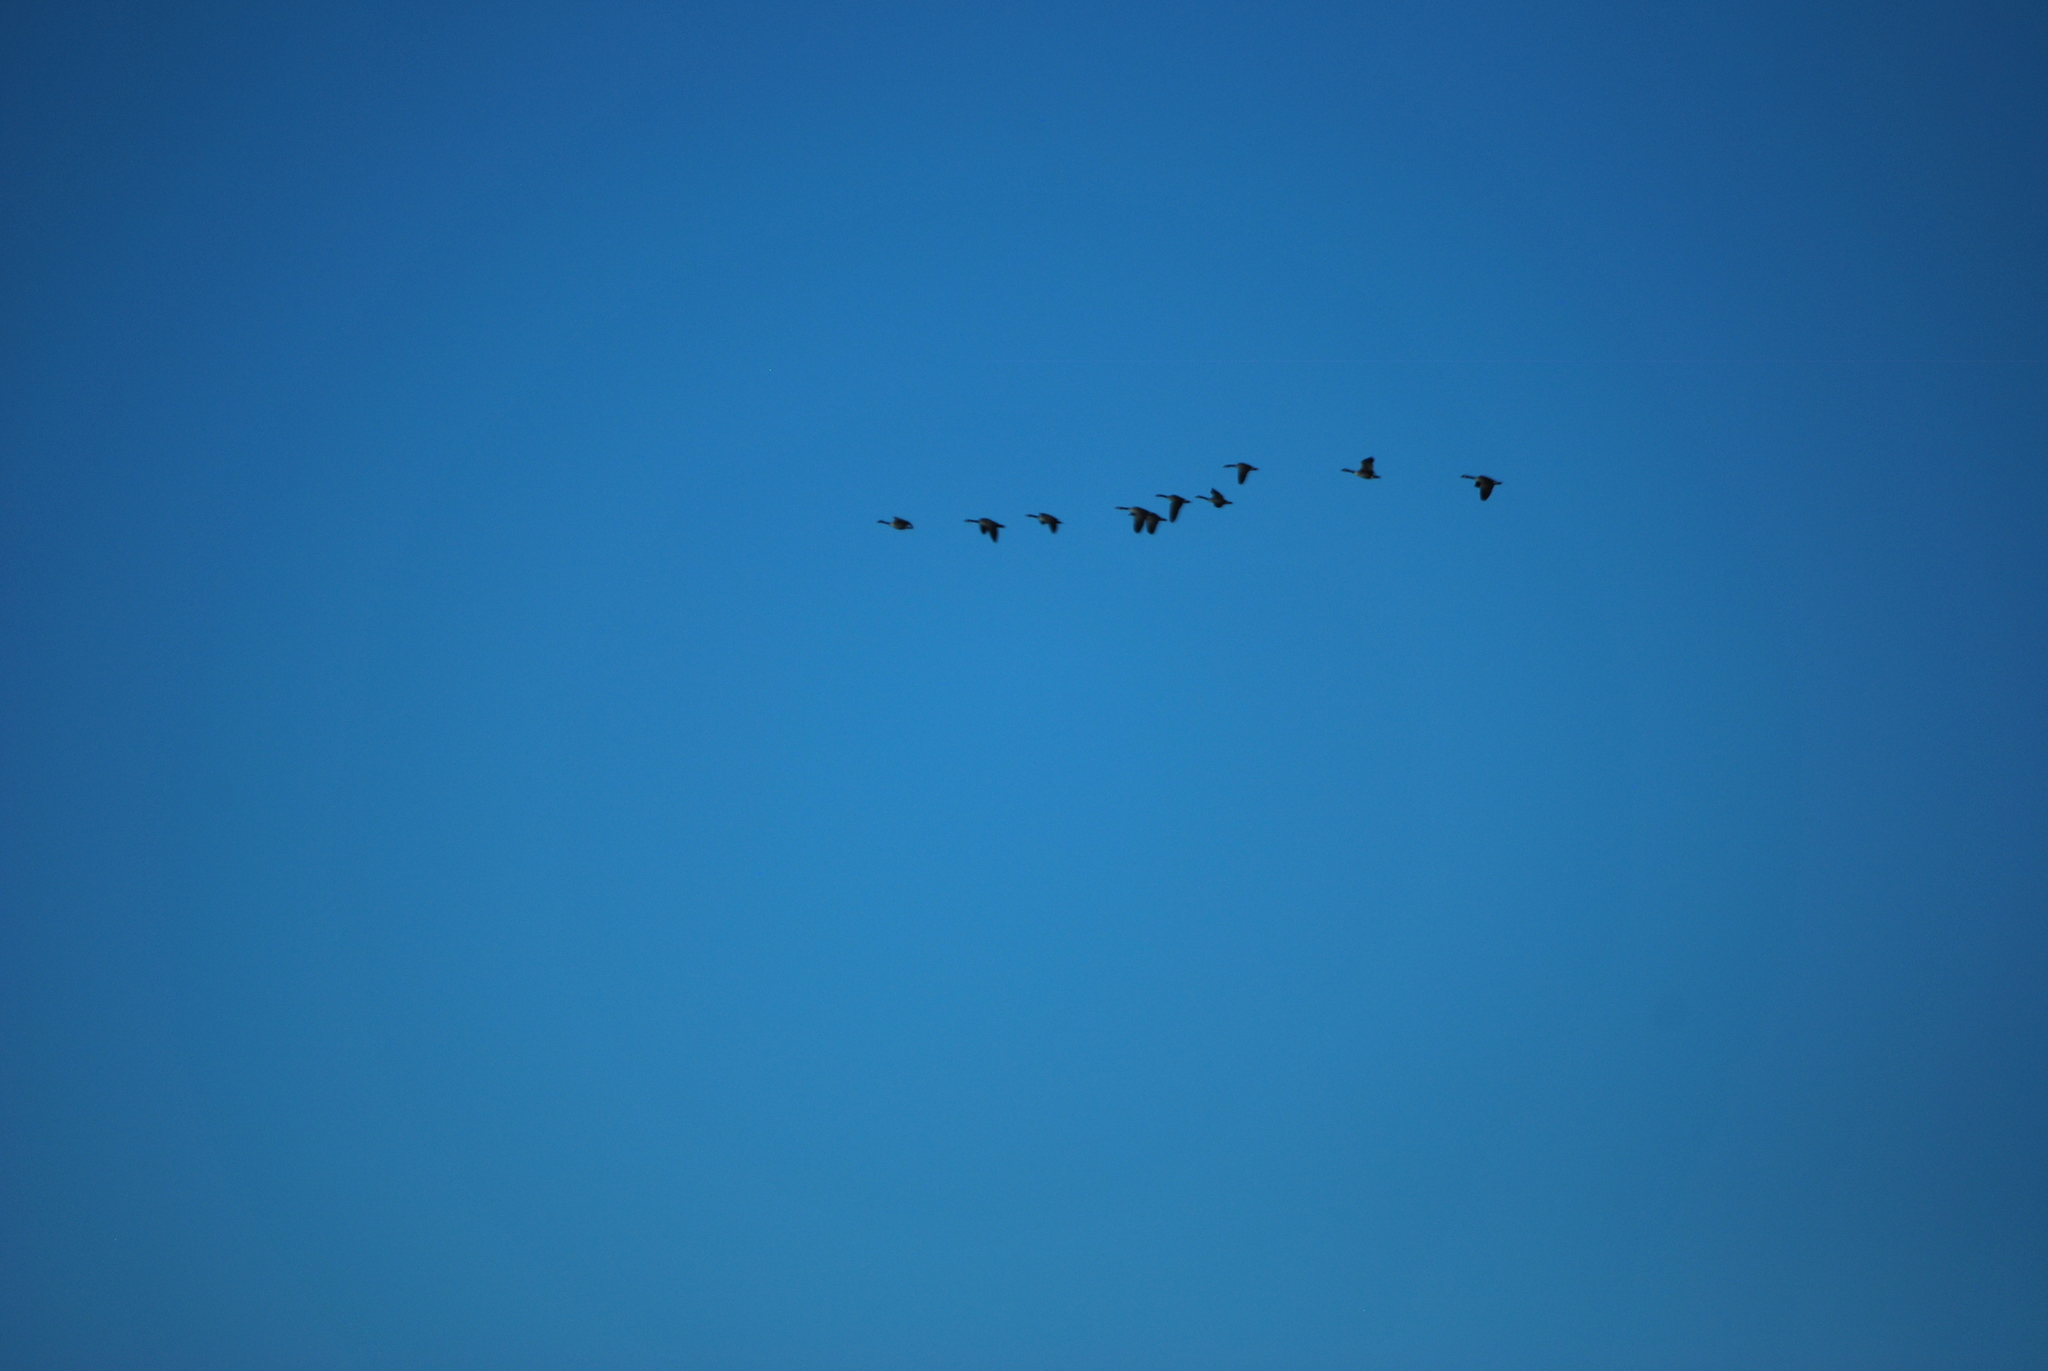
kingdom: Animalia
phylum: Chordata
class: Aves
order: Anseriformes
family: Anatidae
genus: Branta
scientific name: Branta canadensis
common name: Canada goose
